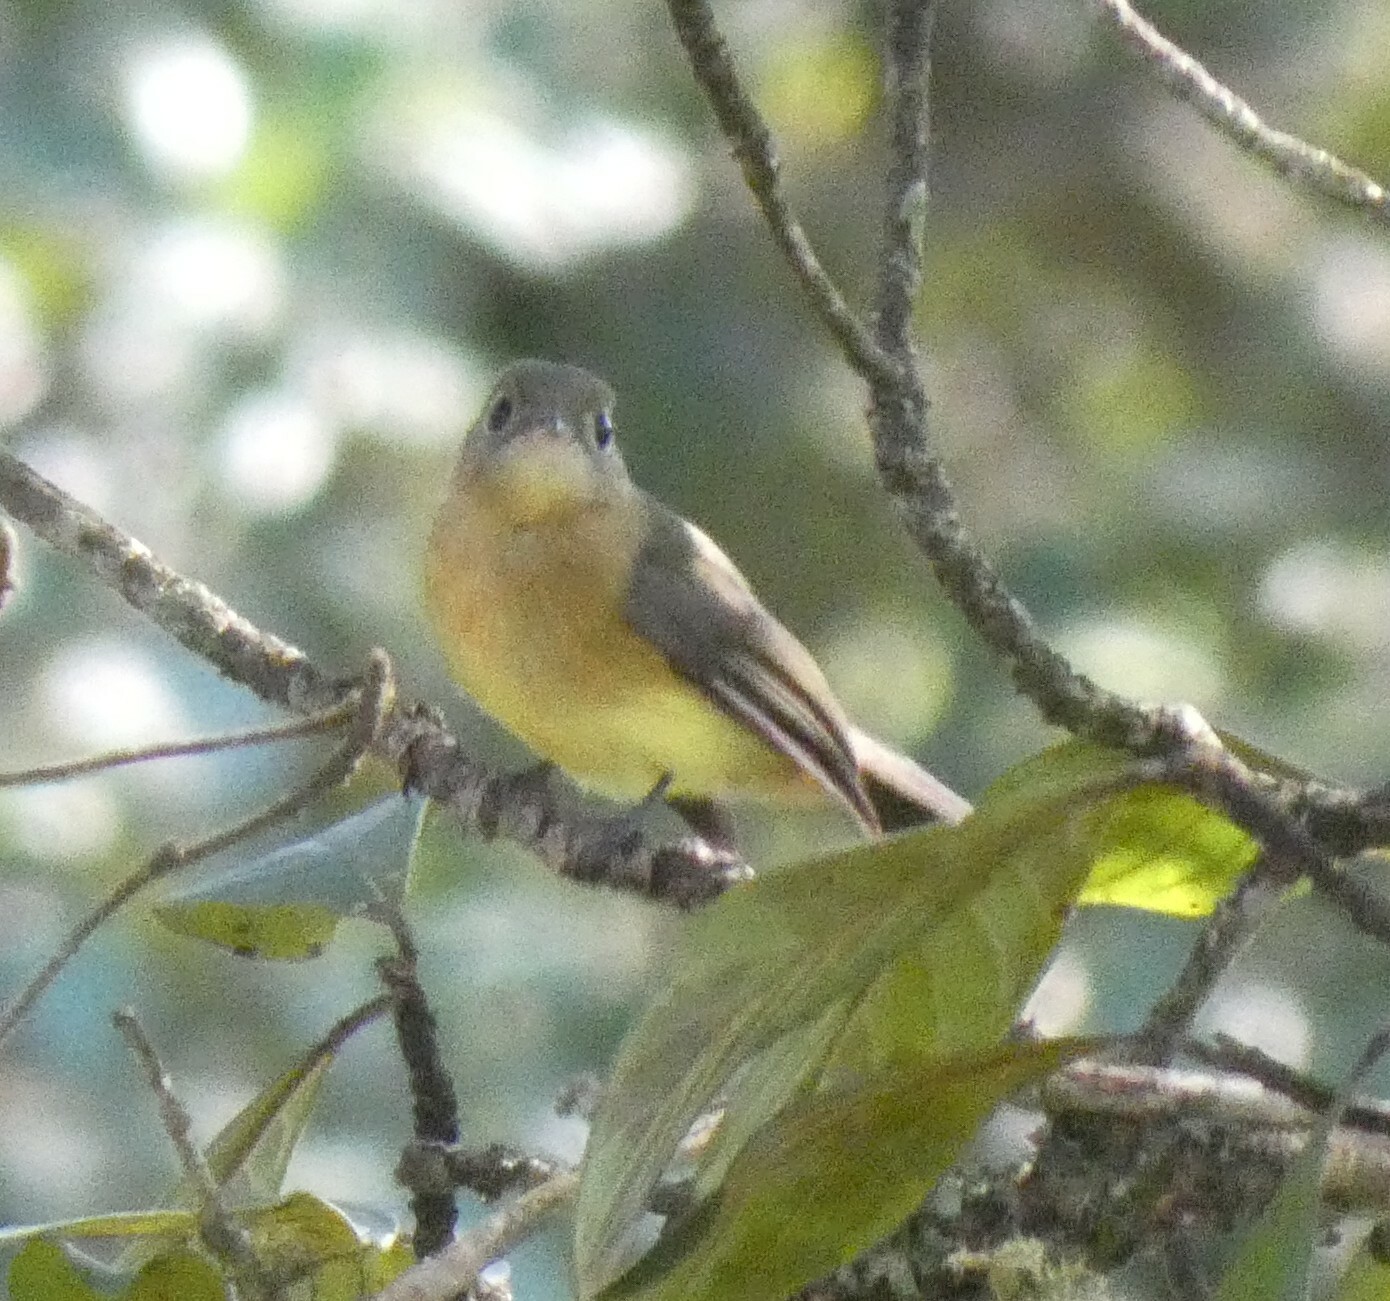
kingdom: Animalia
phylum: Chordata
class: Aves
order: Passeriformes
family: Tyrannidae
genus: Myiobius
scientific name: Myiobius barbatus
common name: Whiskered myiobius
